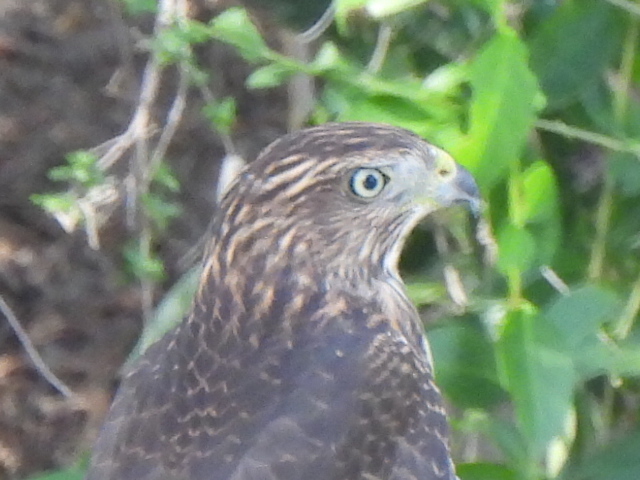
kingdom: Animalia
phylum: Chordata
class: Aves
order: Accipitriformes
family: Accipitridae
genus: Accipiter
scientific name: Accipiter cooperii
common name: Cooper's hawk
